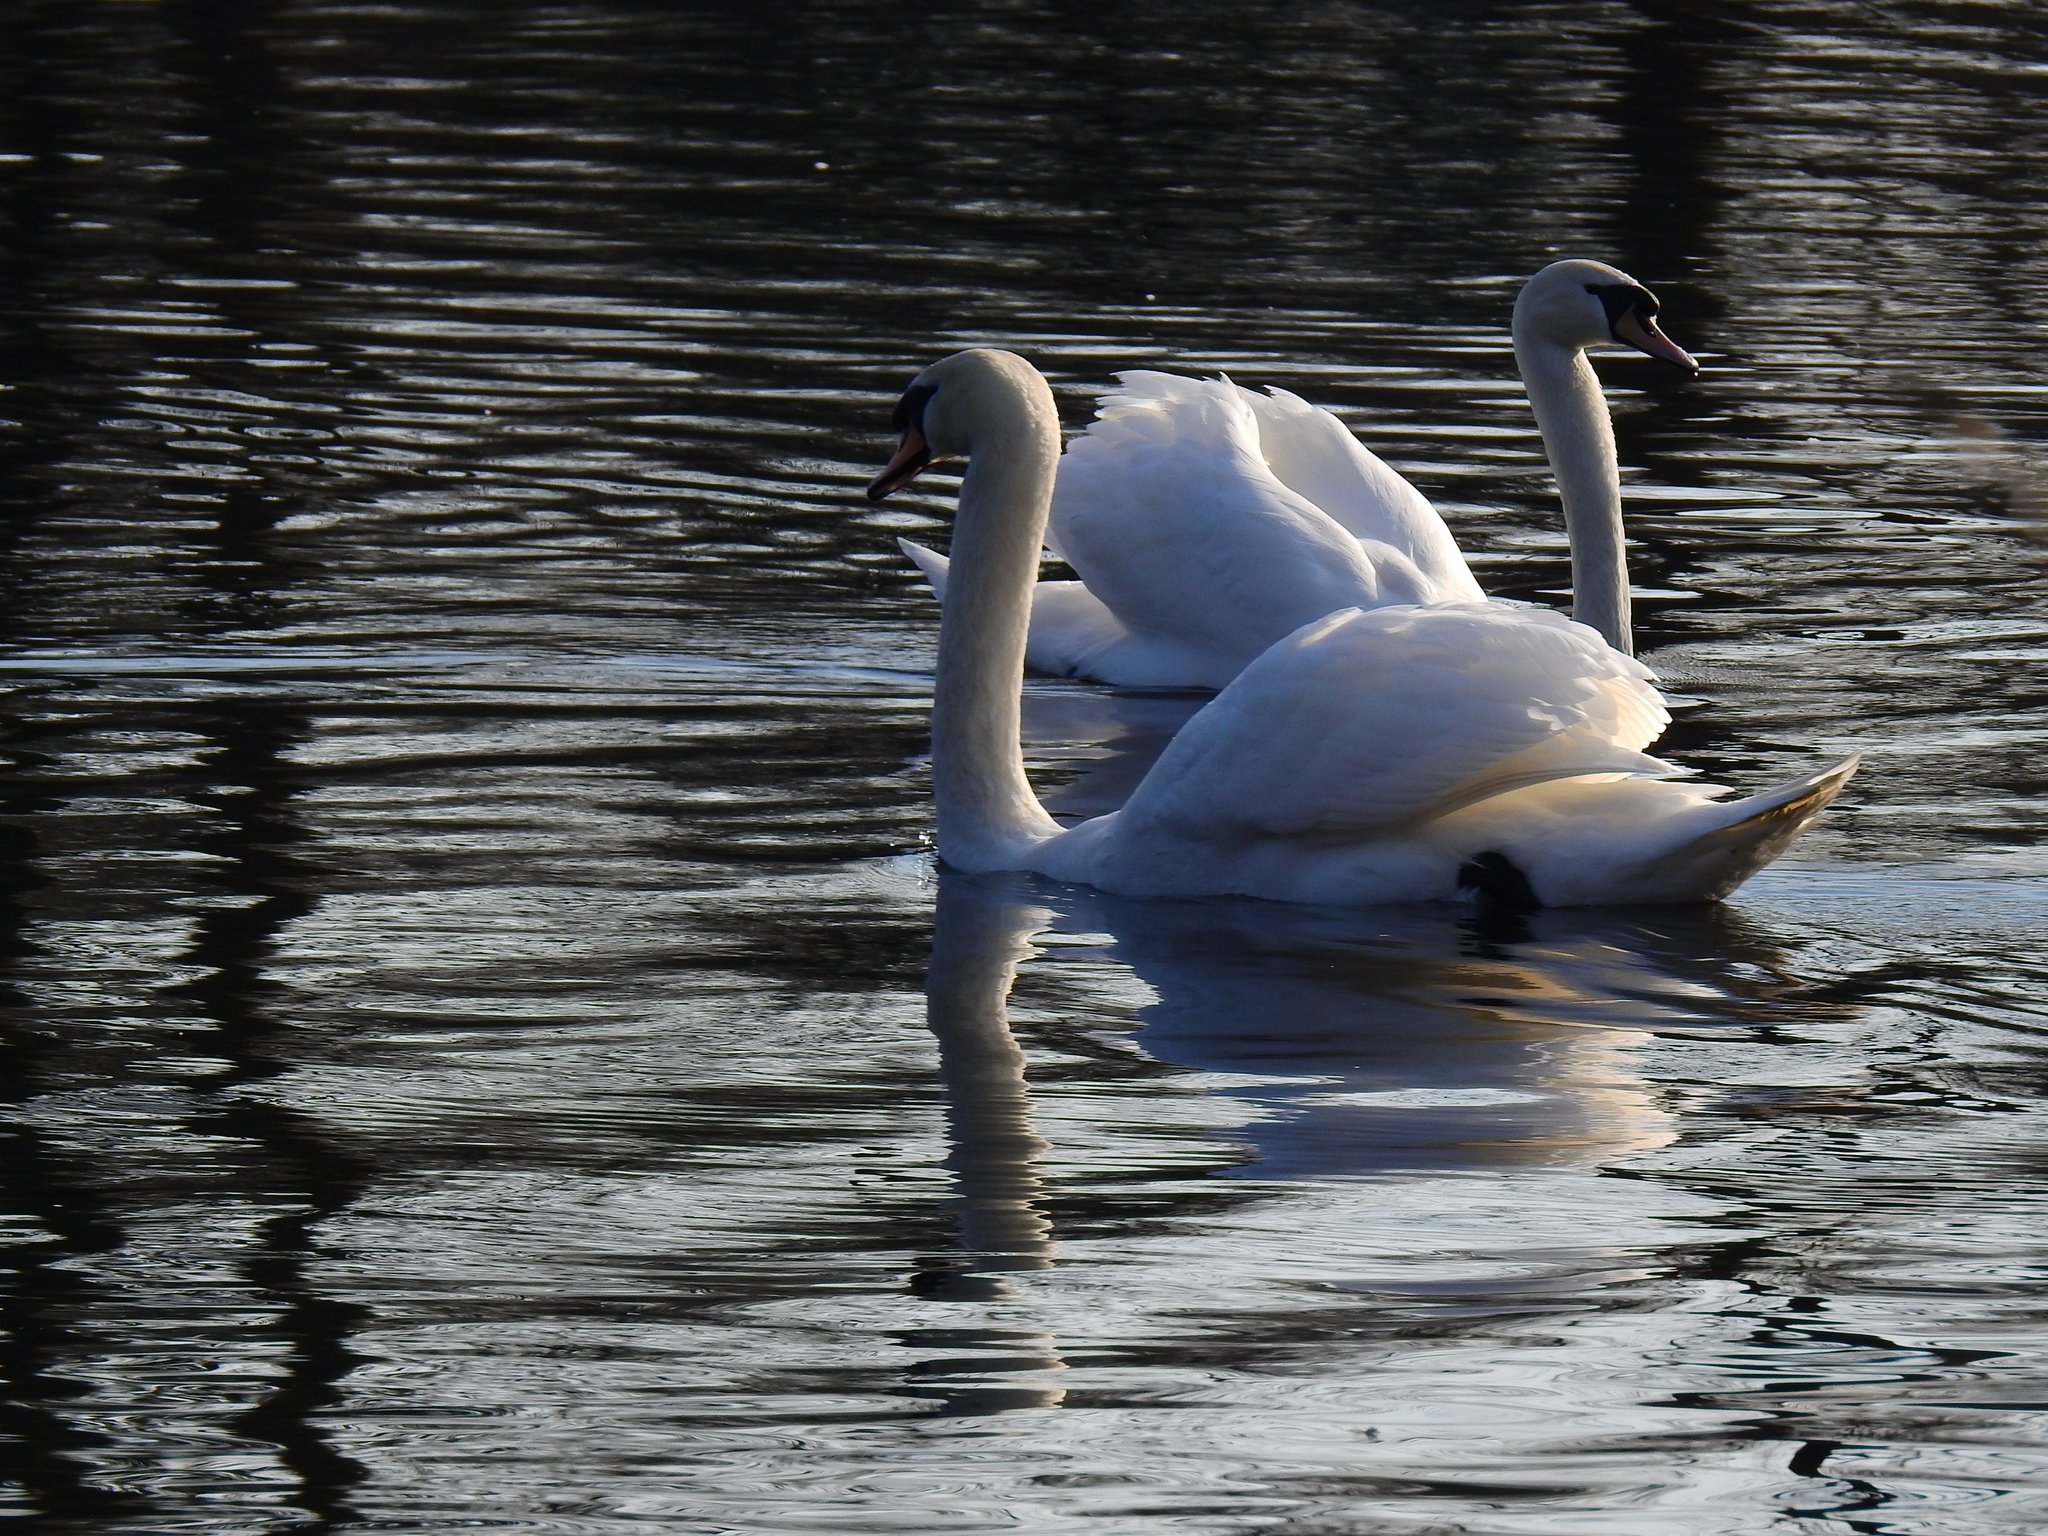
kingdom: Animalia
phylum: Chordata
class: Aves
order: Anseriformes
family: Anatidae
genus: Cygnus
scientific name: Cygnus olor
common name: Mute swan
